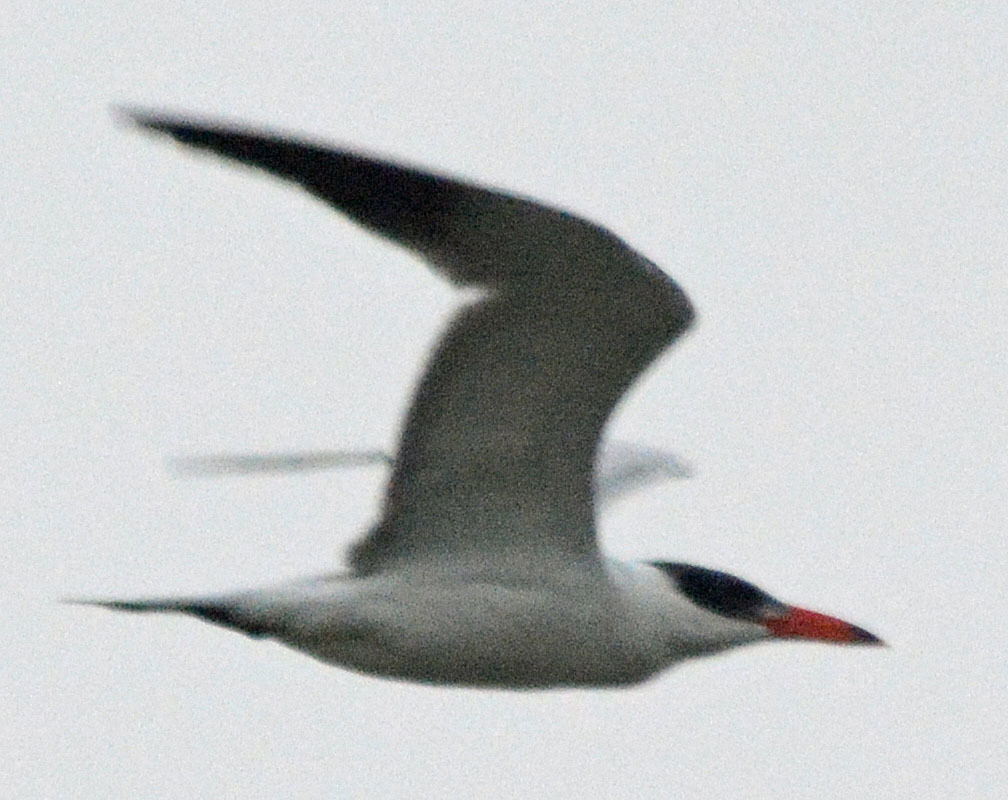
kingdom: Animalia
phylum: Chordata
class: Aves
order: Charadriiformes
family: Laridae
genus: Hydroprogne
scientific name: Hydroprogne caspia
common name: Caspian tern
